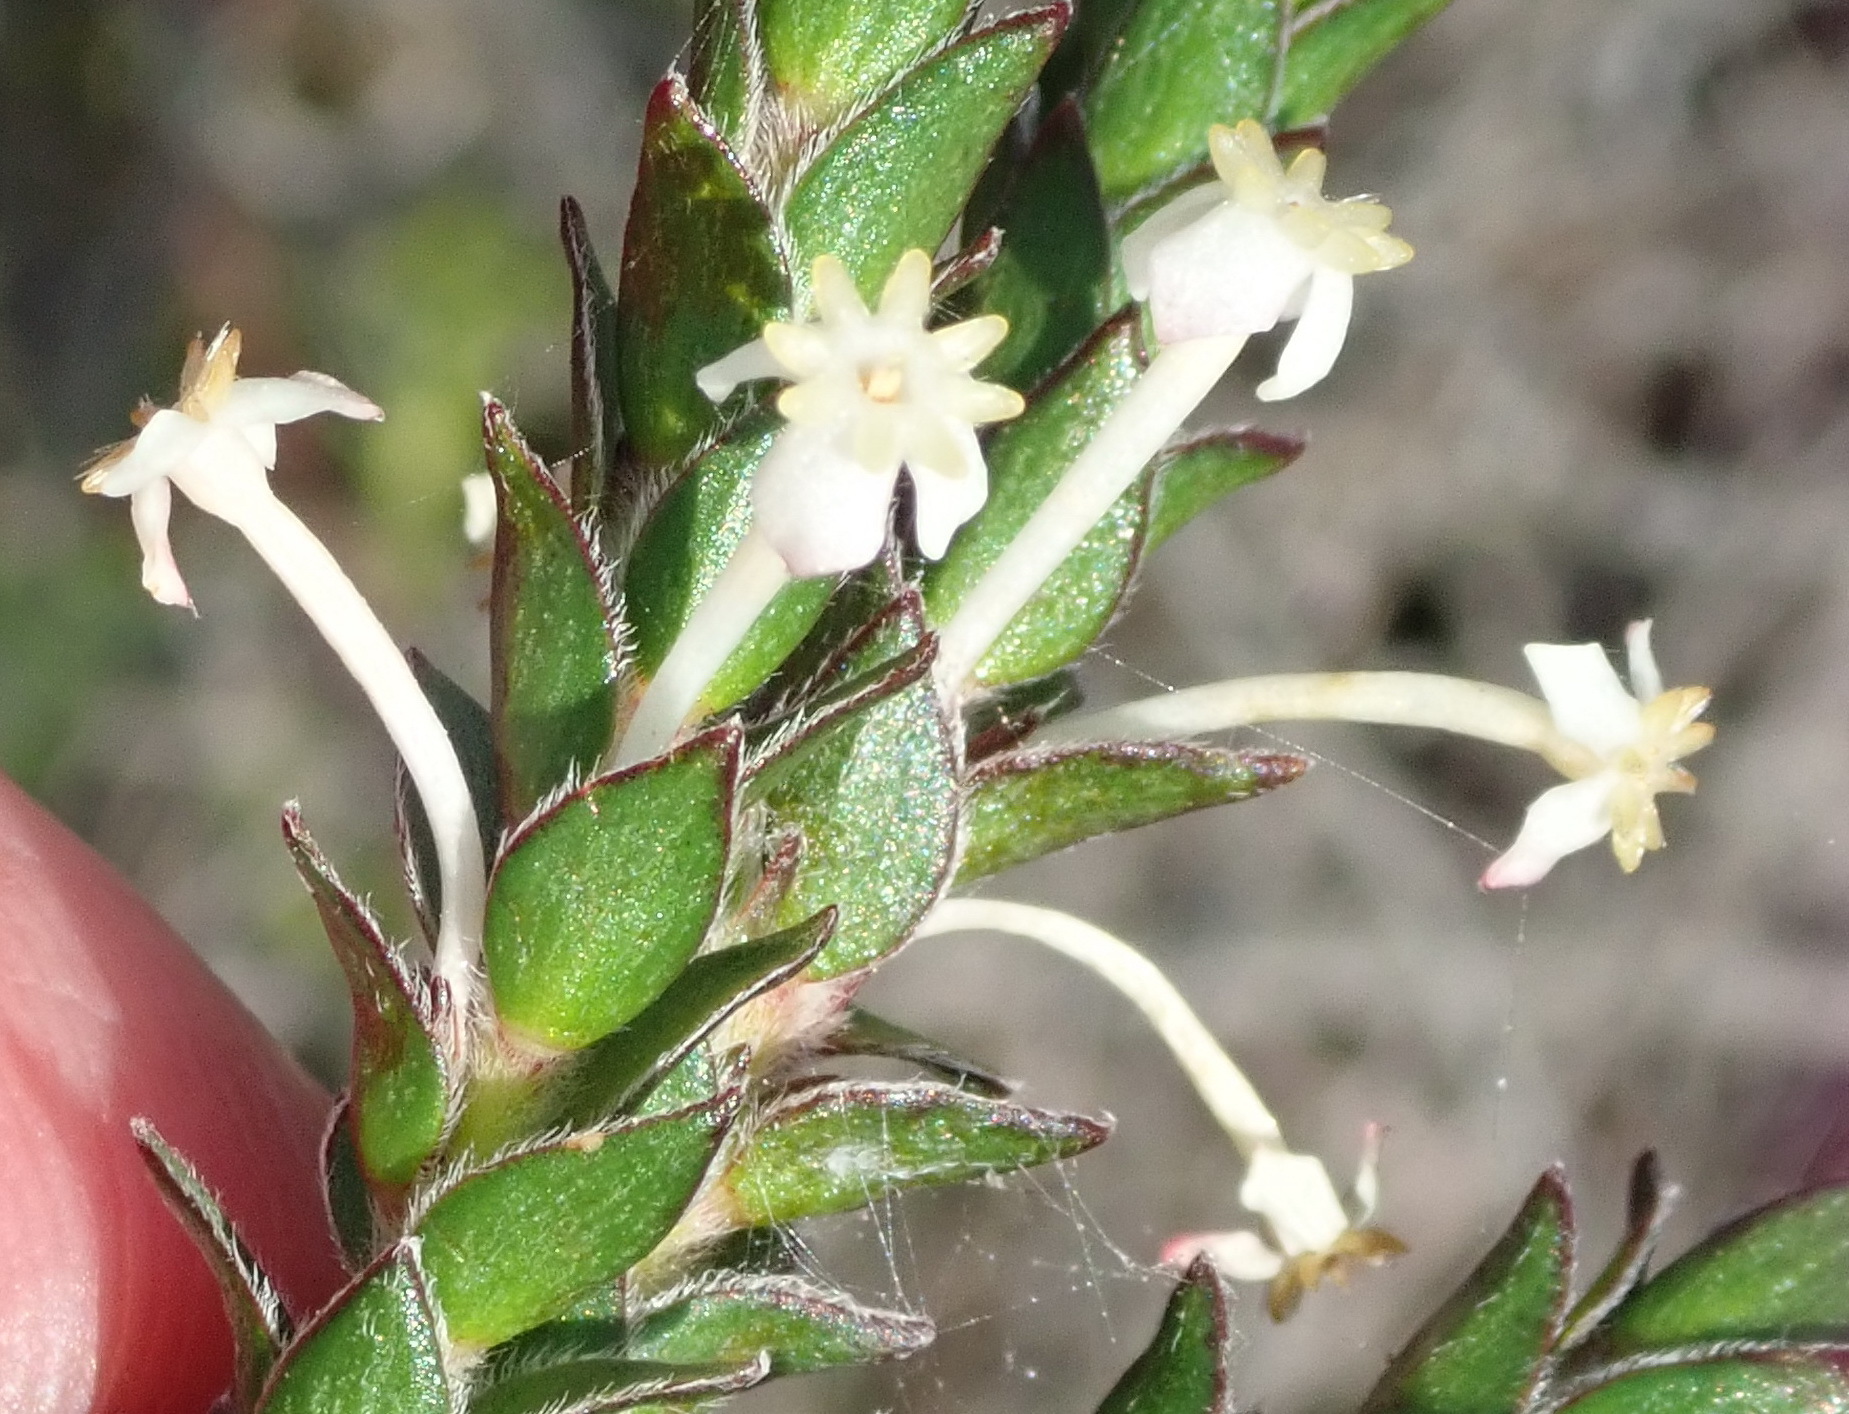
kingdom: Plantae
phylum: Tracheophyta
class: Magnoliopsida
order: Malvales
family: Thymelaeaceae
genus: Struthiola
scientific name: Struthiola hirsuta
